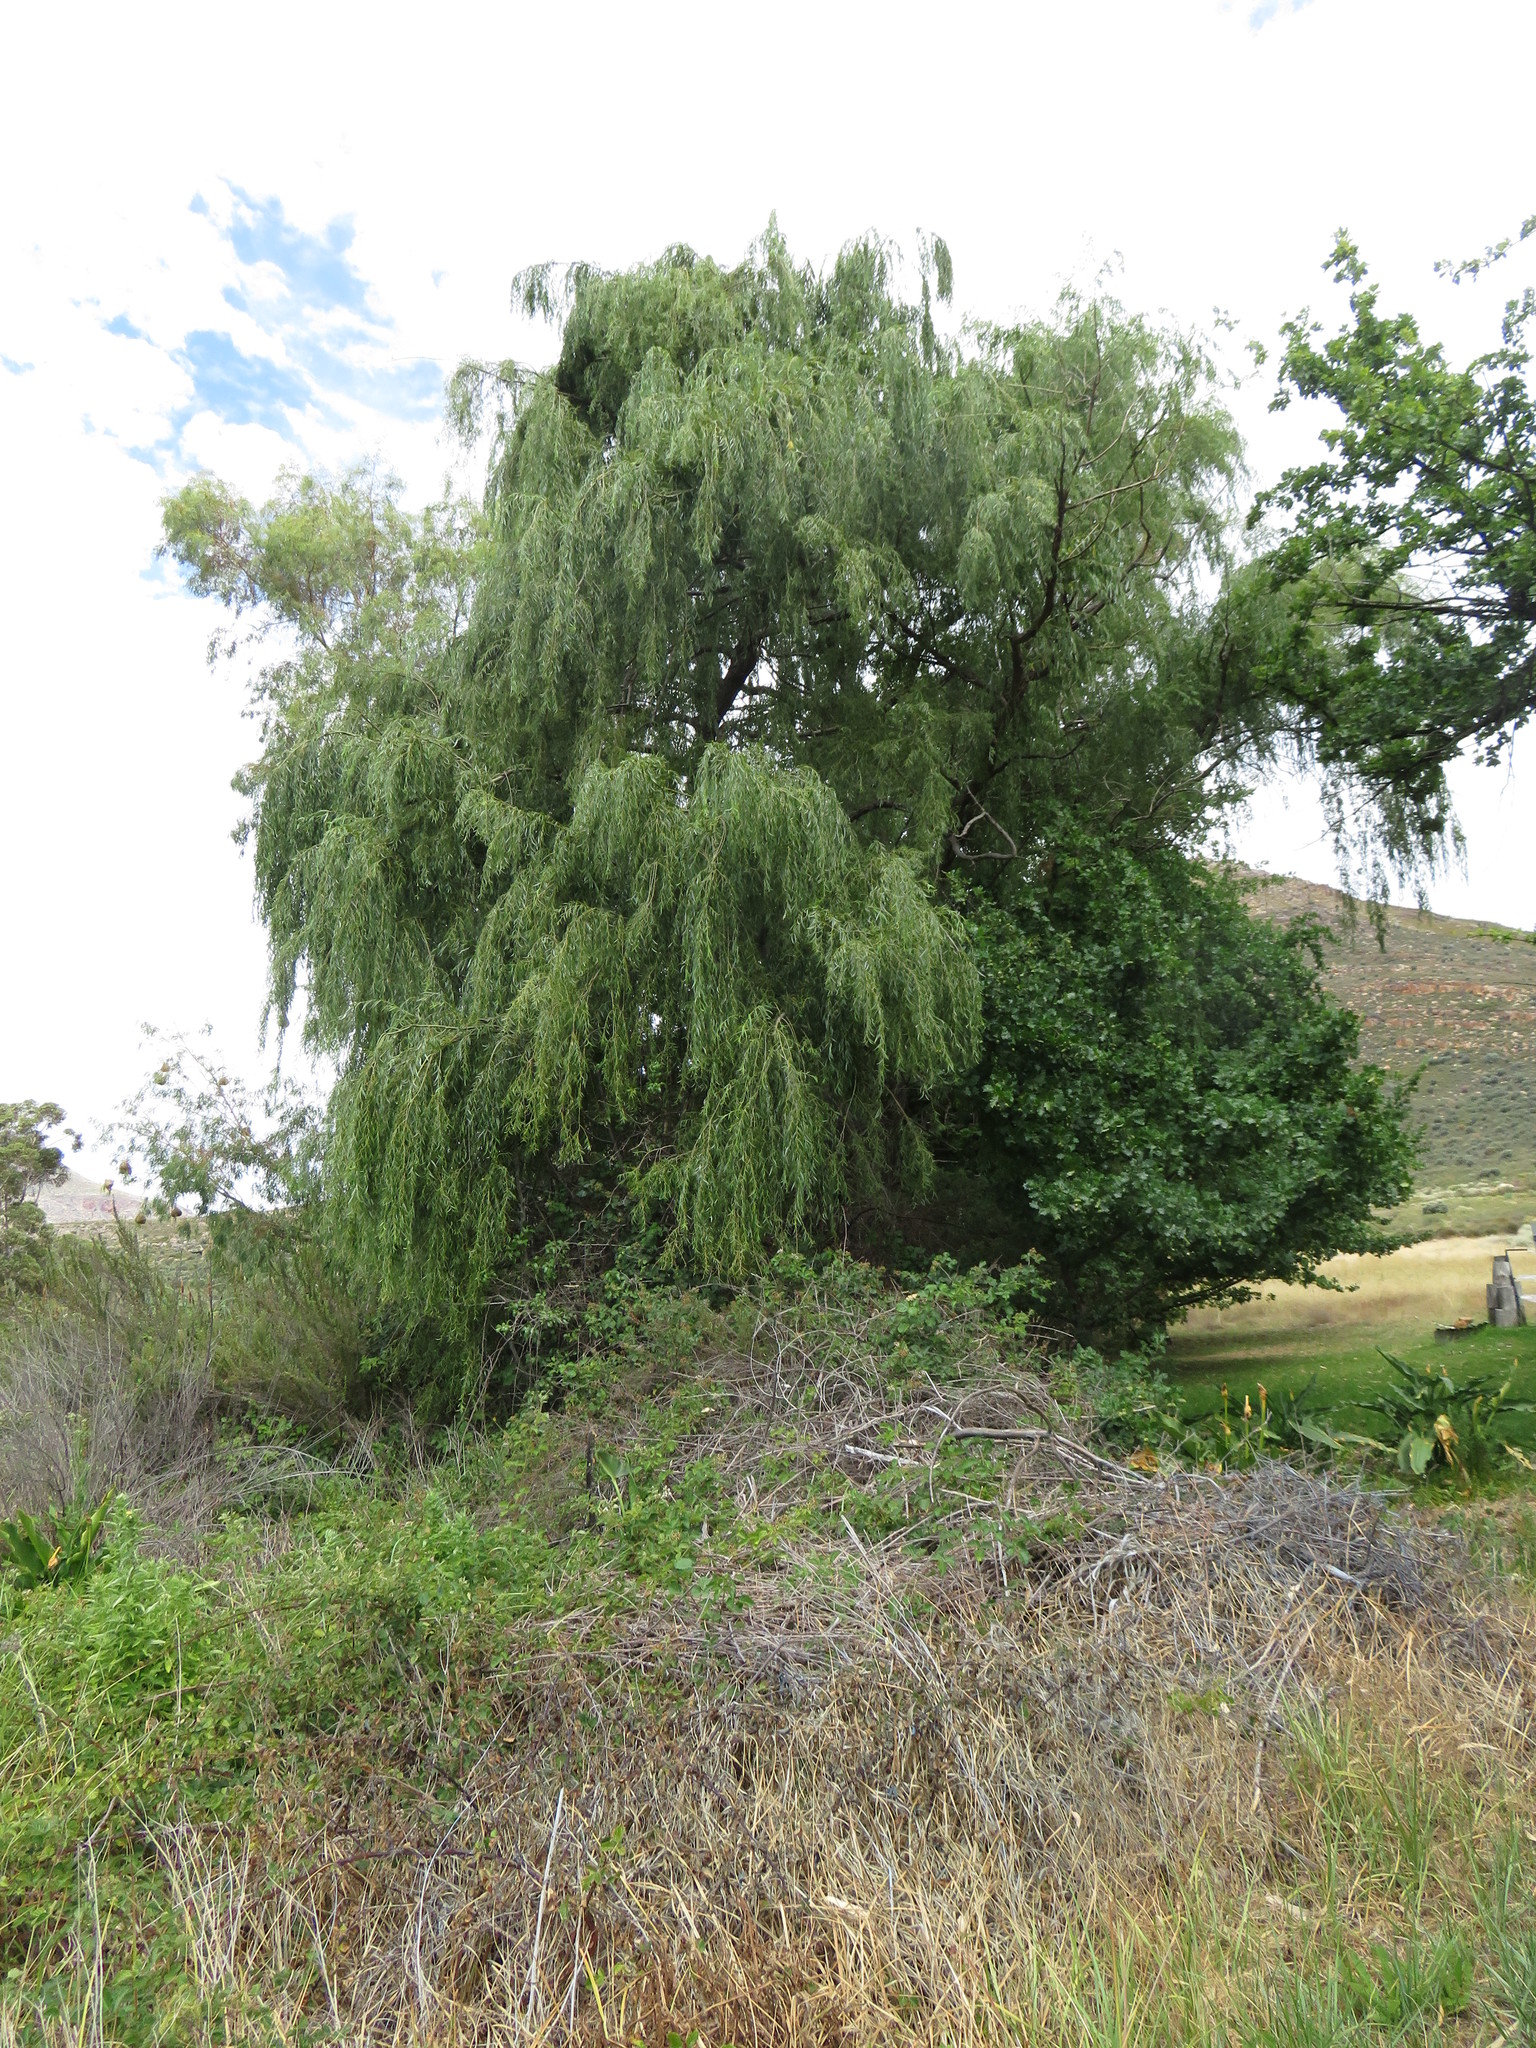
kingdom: Plantae
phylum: Tracheophyta
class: Magnoliopsida
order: Malpighiales
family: Salicaceae
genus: Salix
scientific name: Salix babylonica
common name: Weeping willow
